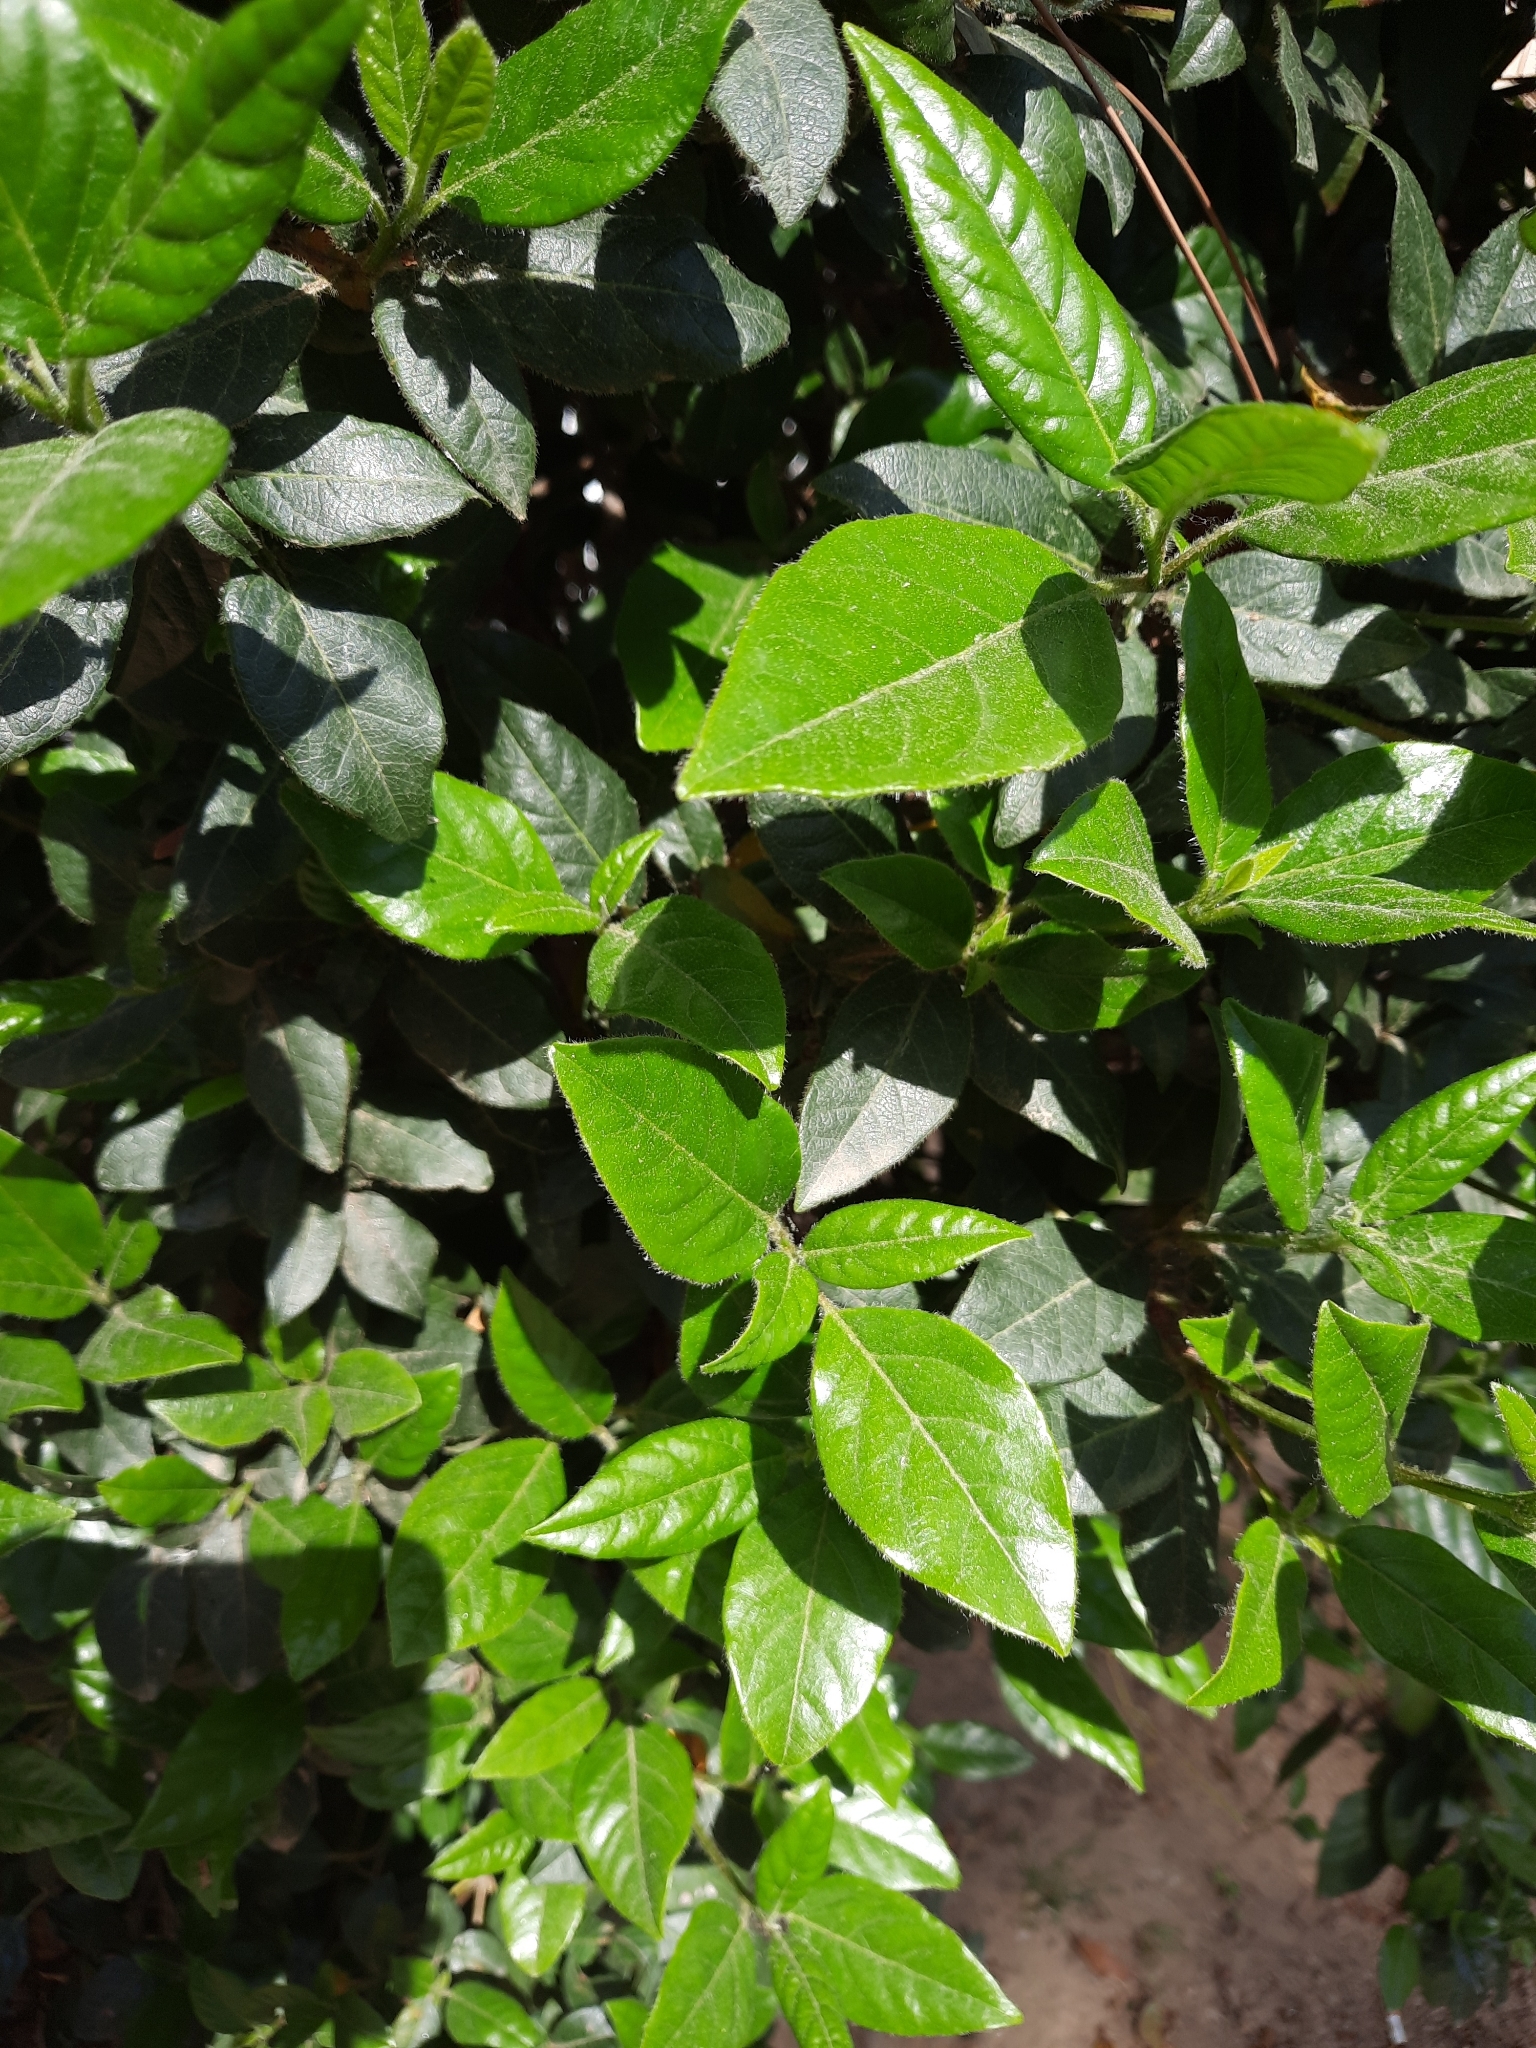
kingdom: Plantae
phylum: Tracheophyta
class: Magnoliopsida
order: Dipsacales
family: Viburnaceae
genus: Viburnum
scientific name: Viburnum tinus
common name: Laurustinus
